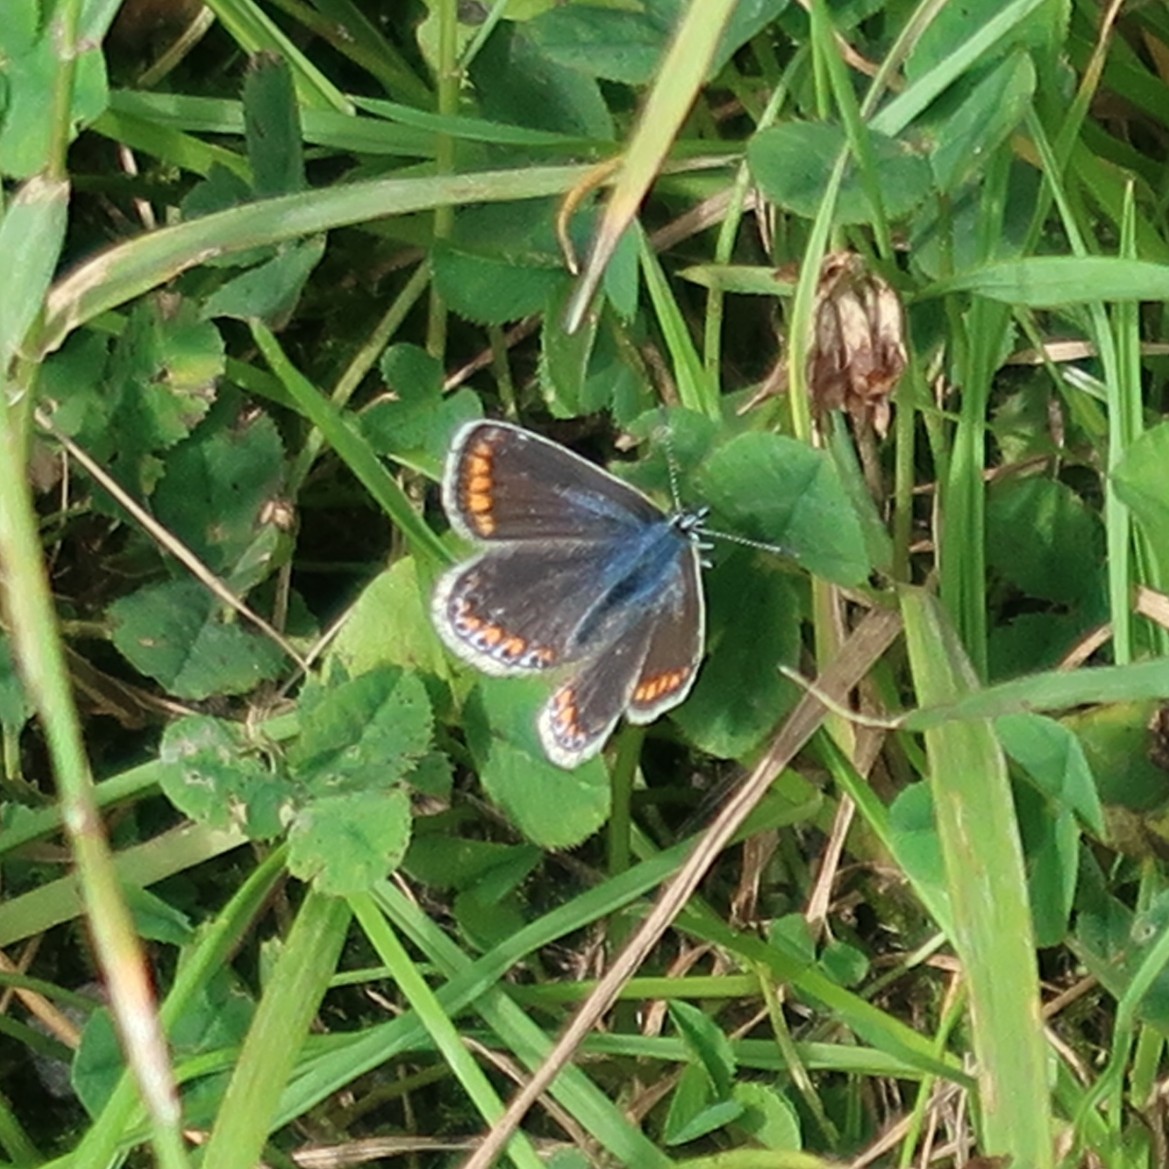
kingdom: Animalia
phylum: Arthropoda
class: Insecta
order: Lepidoptera
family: Lycaenidae
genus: Polyommatus
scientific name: Polyommatus icarus
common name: Common blue
